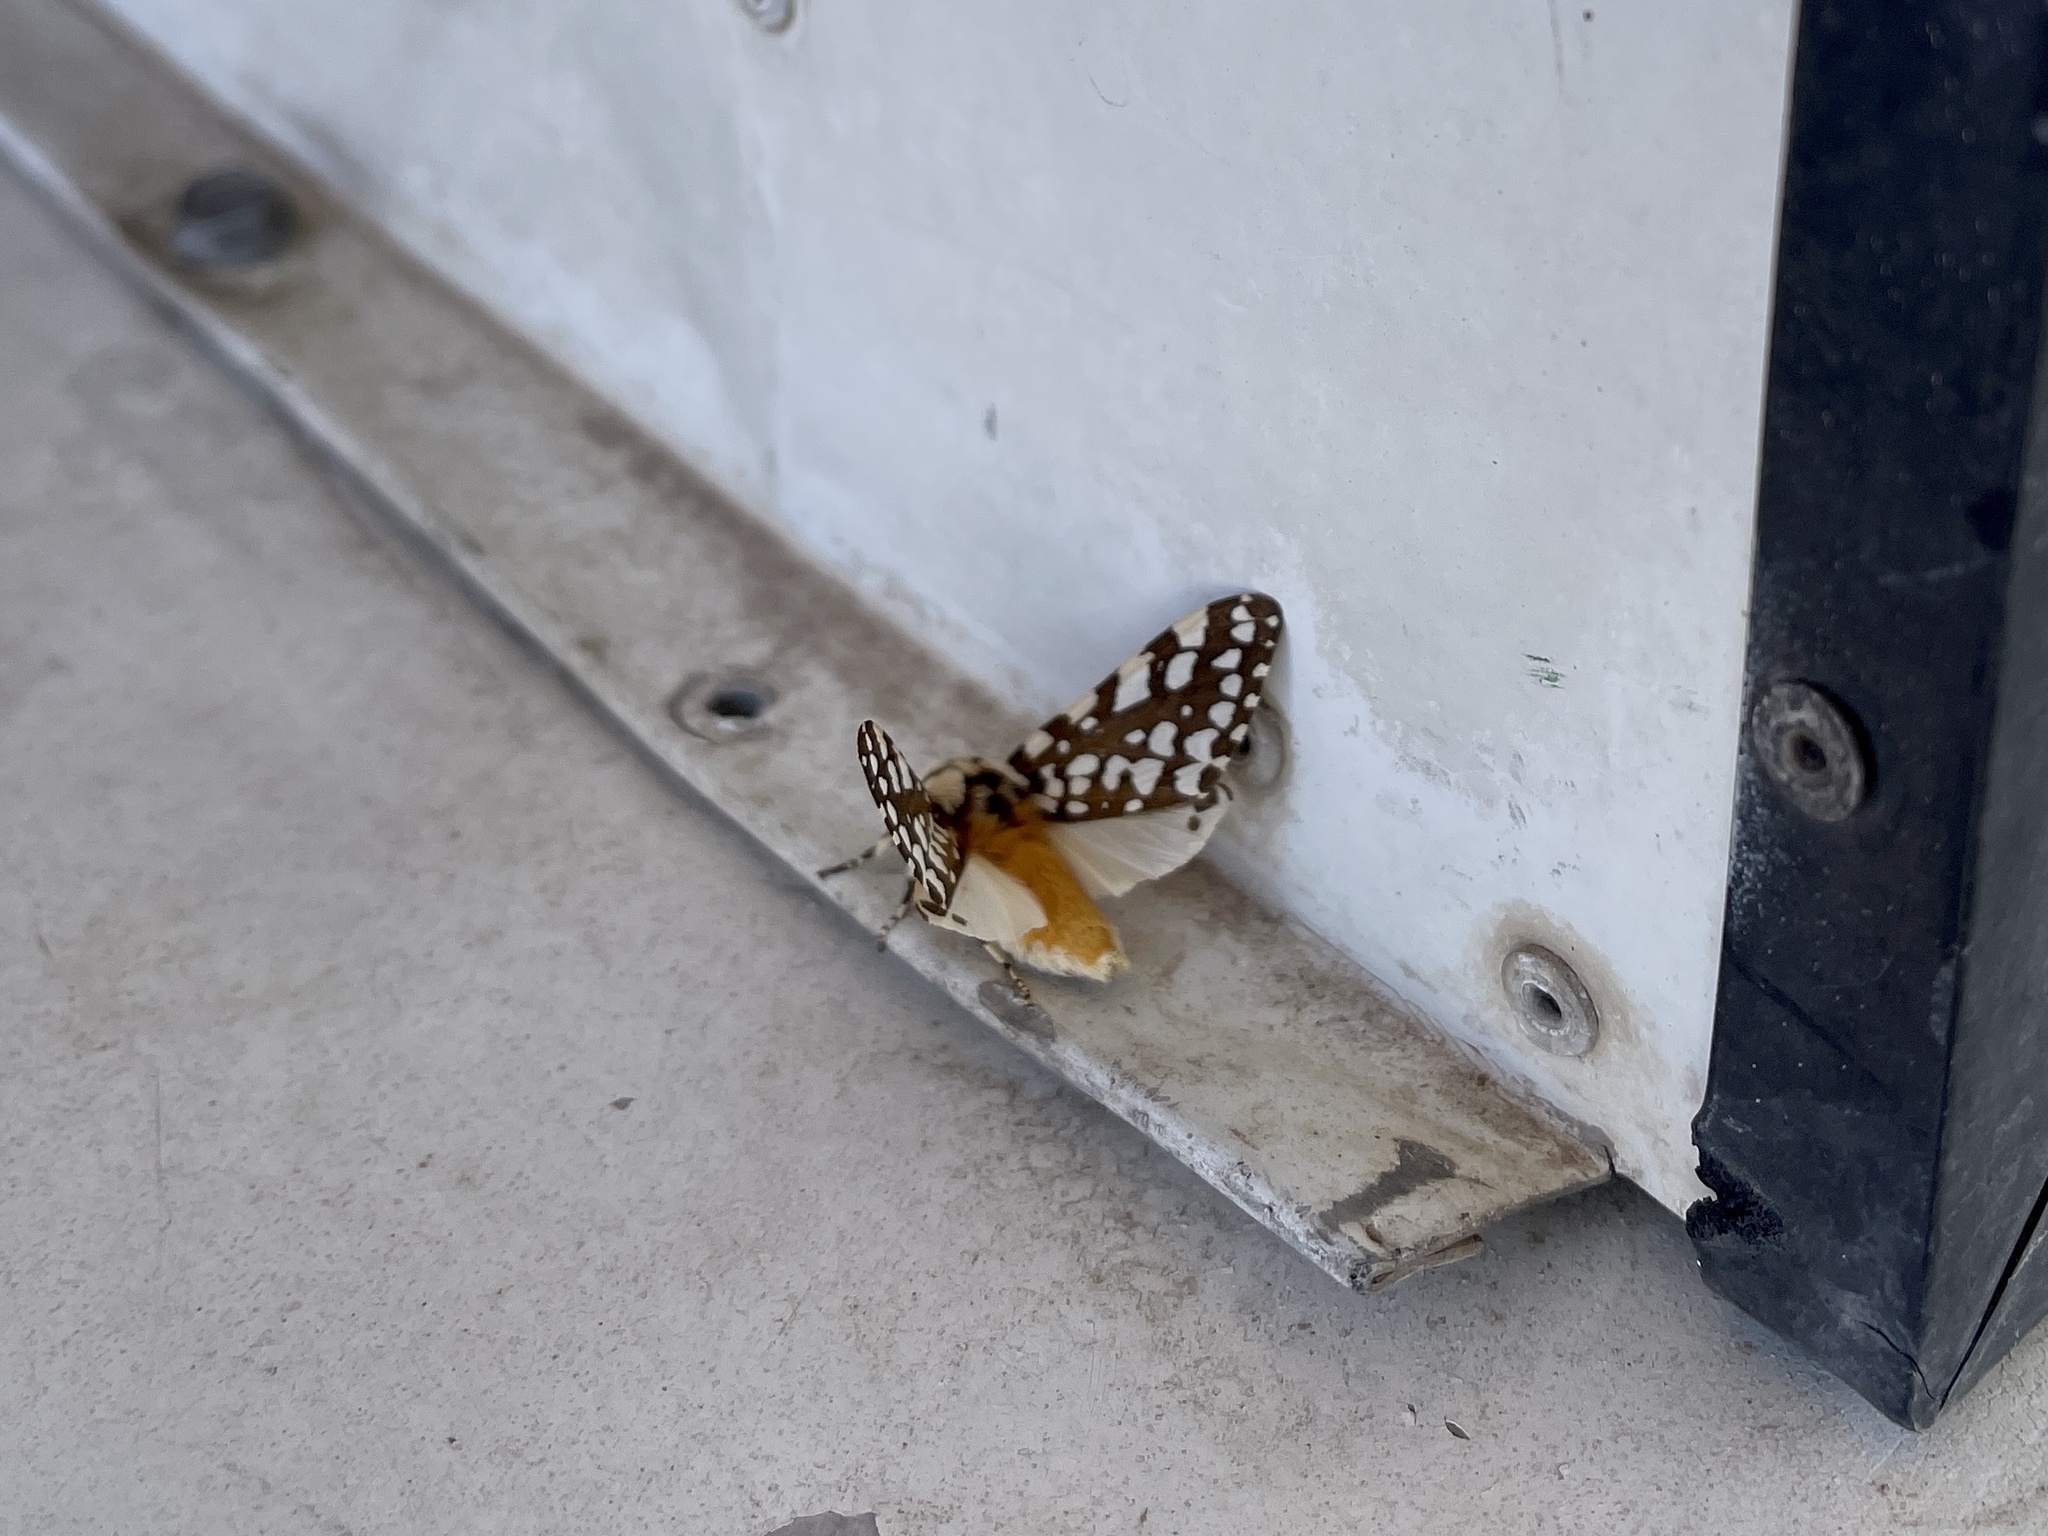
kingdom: Animalia
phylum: Arthropoda
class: Insecta
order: Lepidoptera
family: Erebidae
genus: Lophocampa
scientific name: Lophocampa ingens
